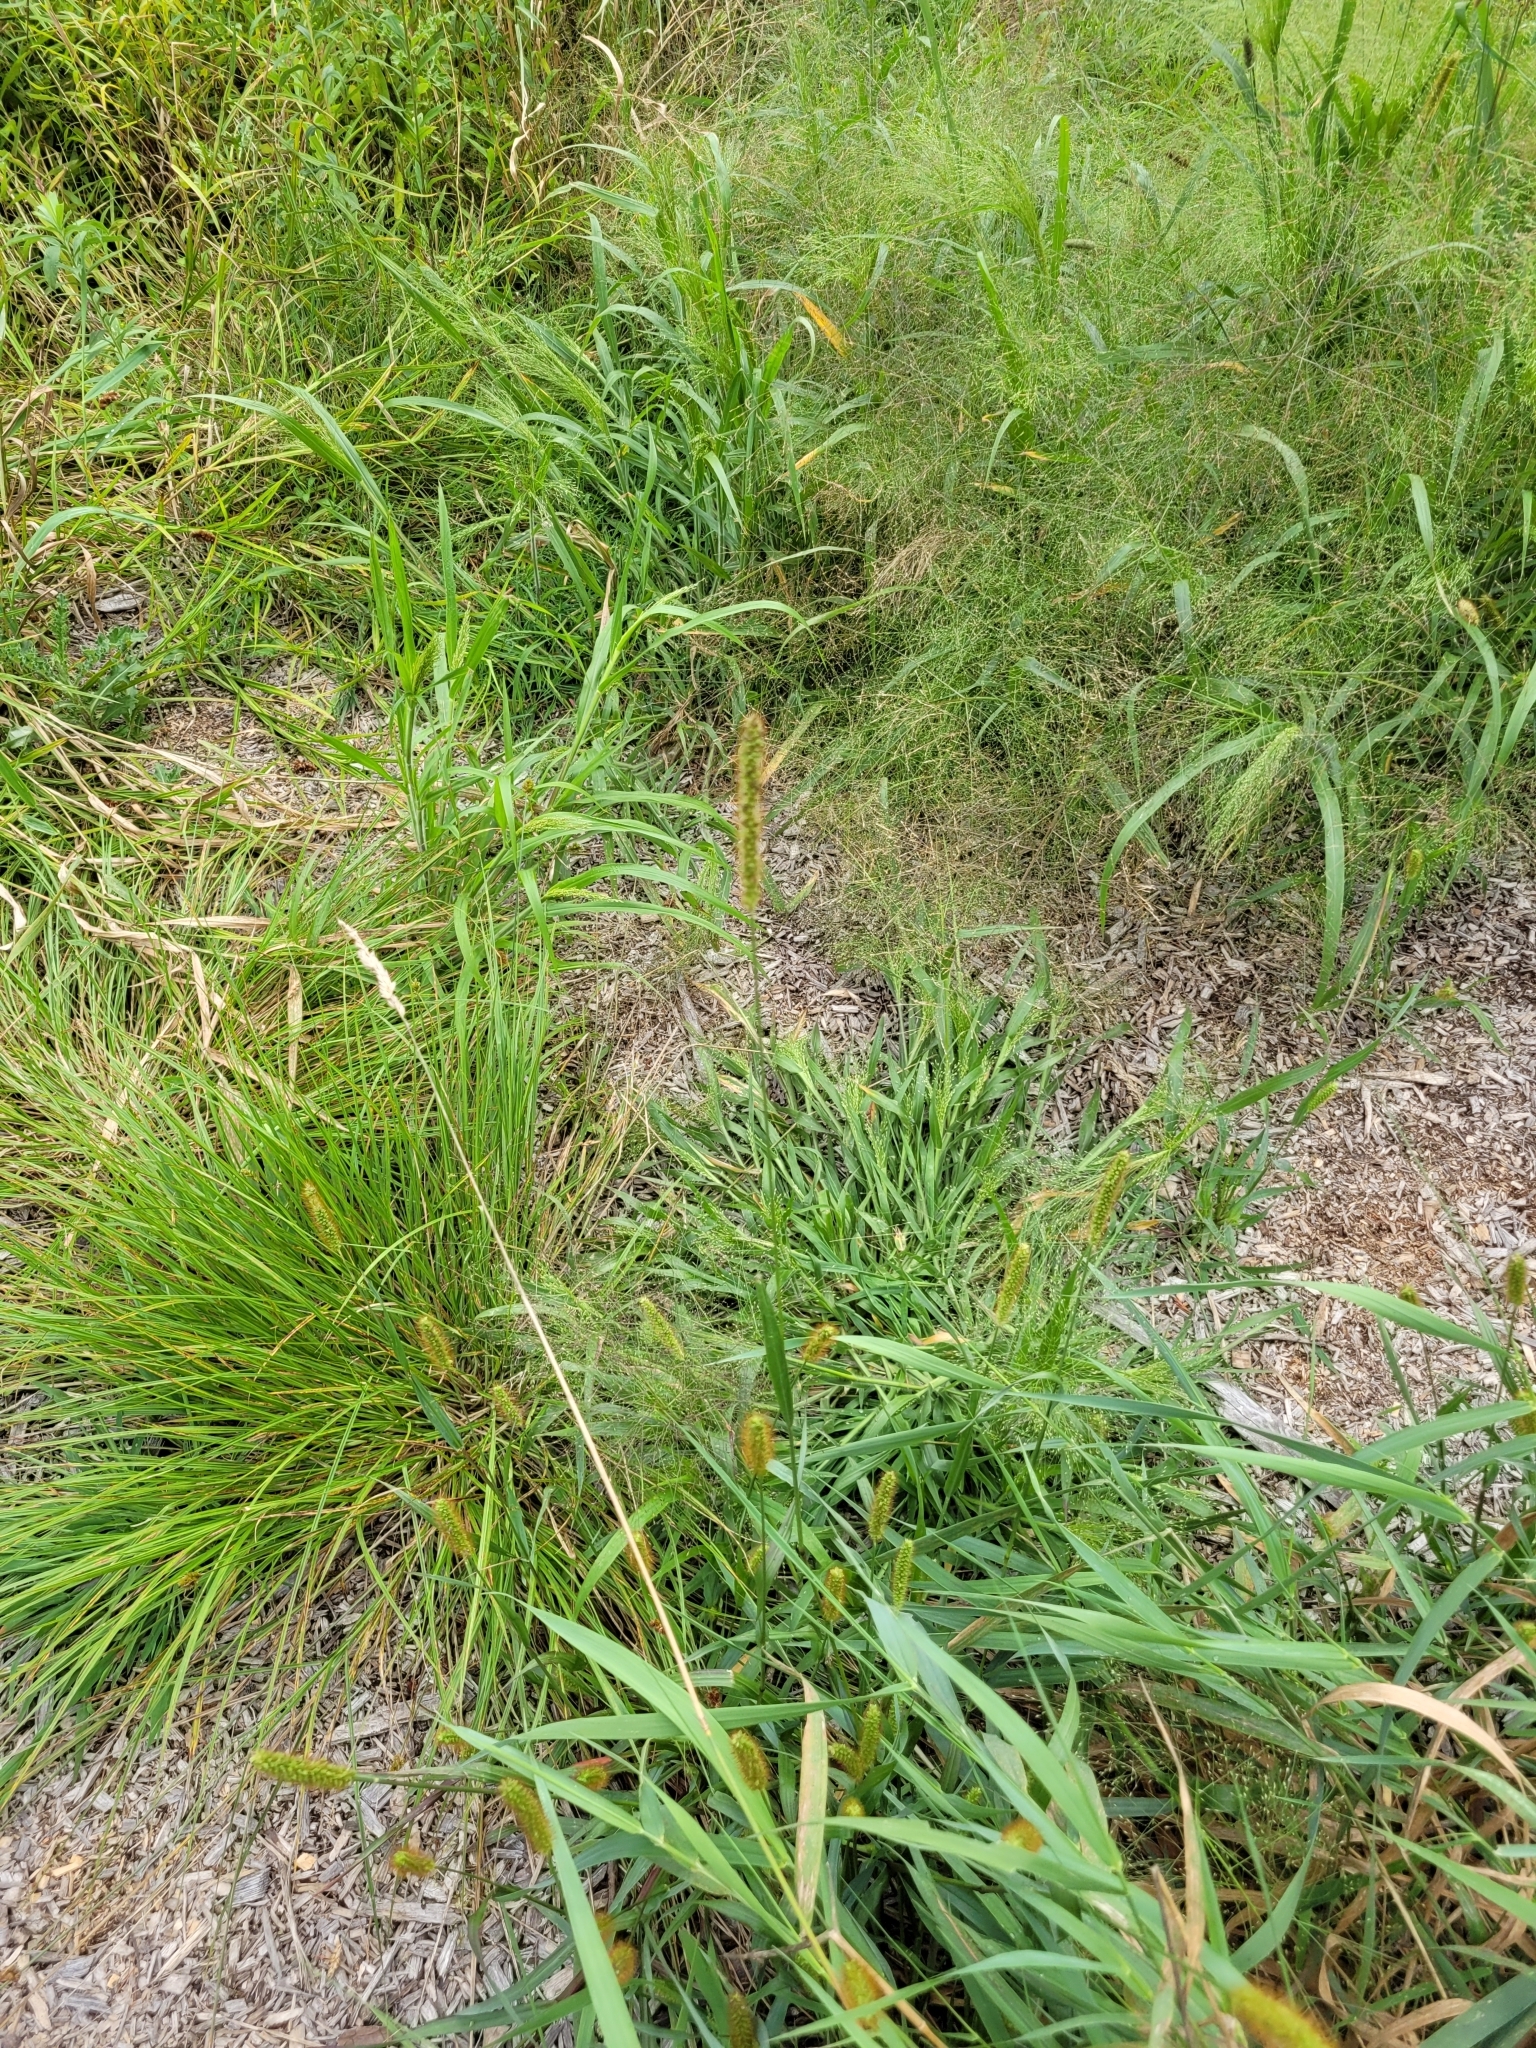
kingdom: Plantae
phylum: Tracheophyta
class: Liliopsida
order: Poales
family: Poaceae
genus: Setaria
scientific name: Setaria pumila
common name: Yellow bristle-grass
